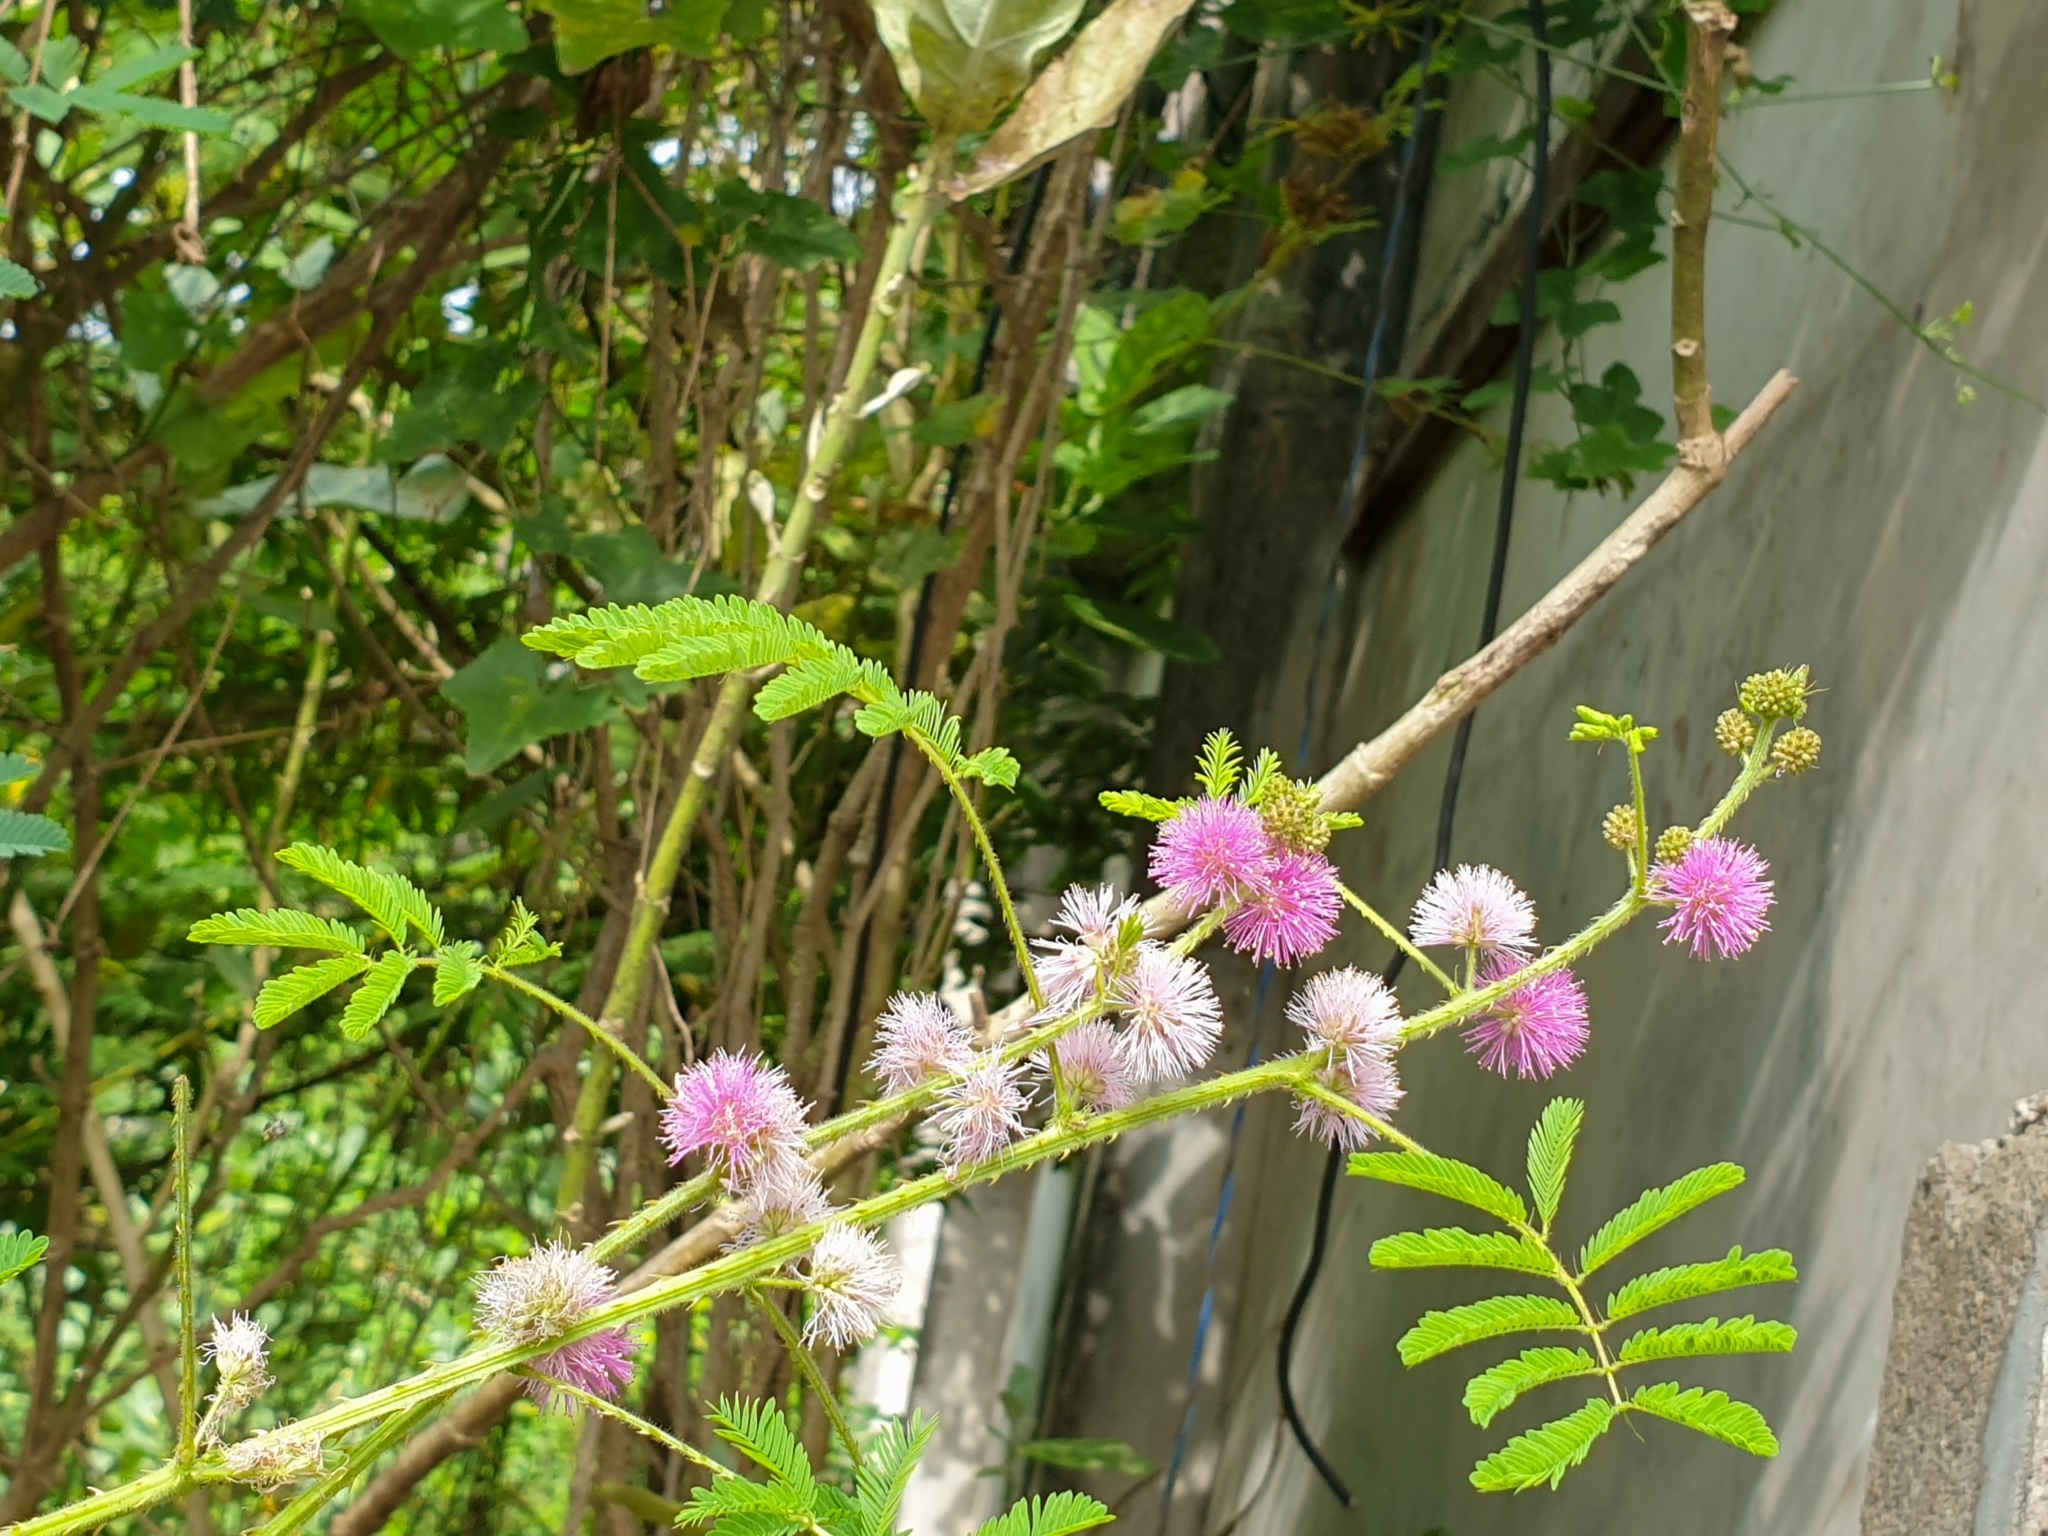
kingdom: Plantae
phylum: Tracheophyta
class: Magnoliopsida
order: Fabales
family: Fabaceae
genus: Mimosa
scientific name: Mimosa diplotricha
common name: Giant sensitive-plant
